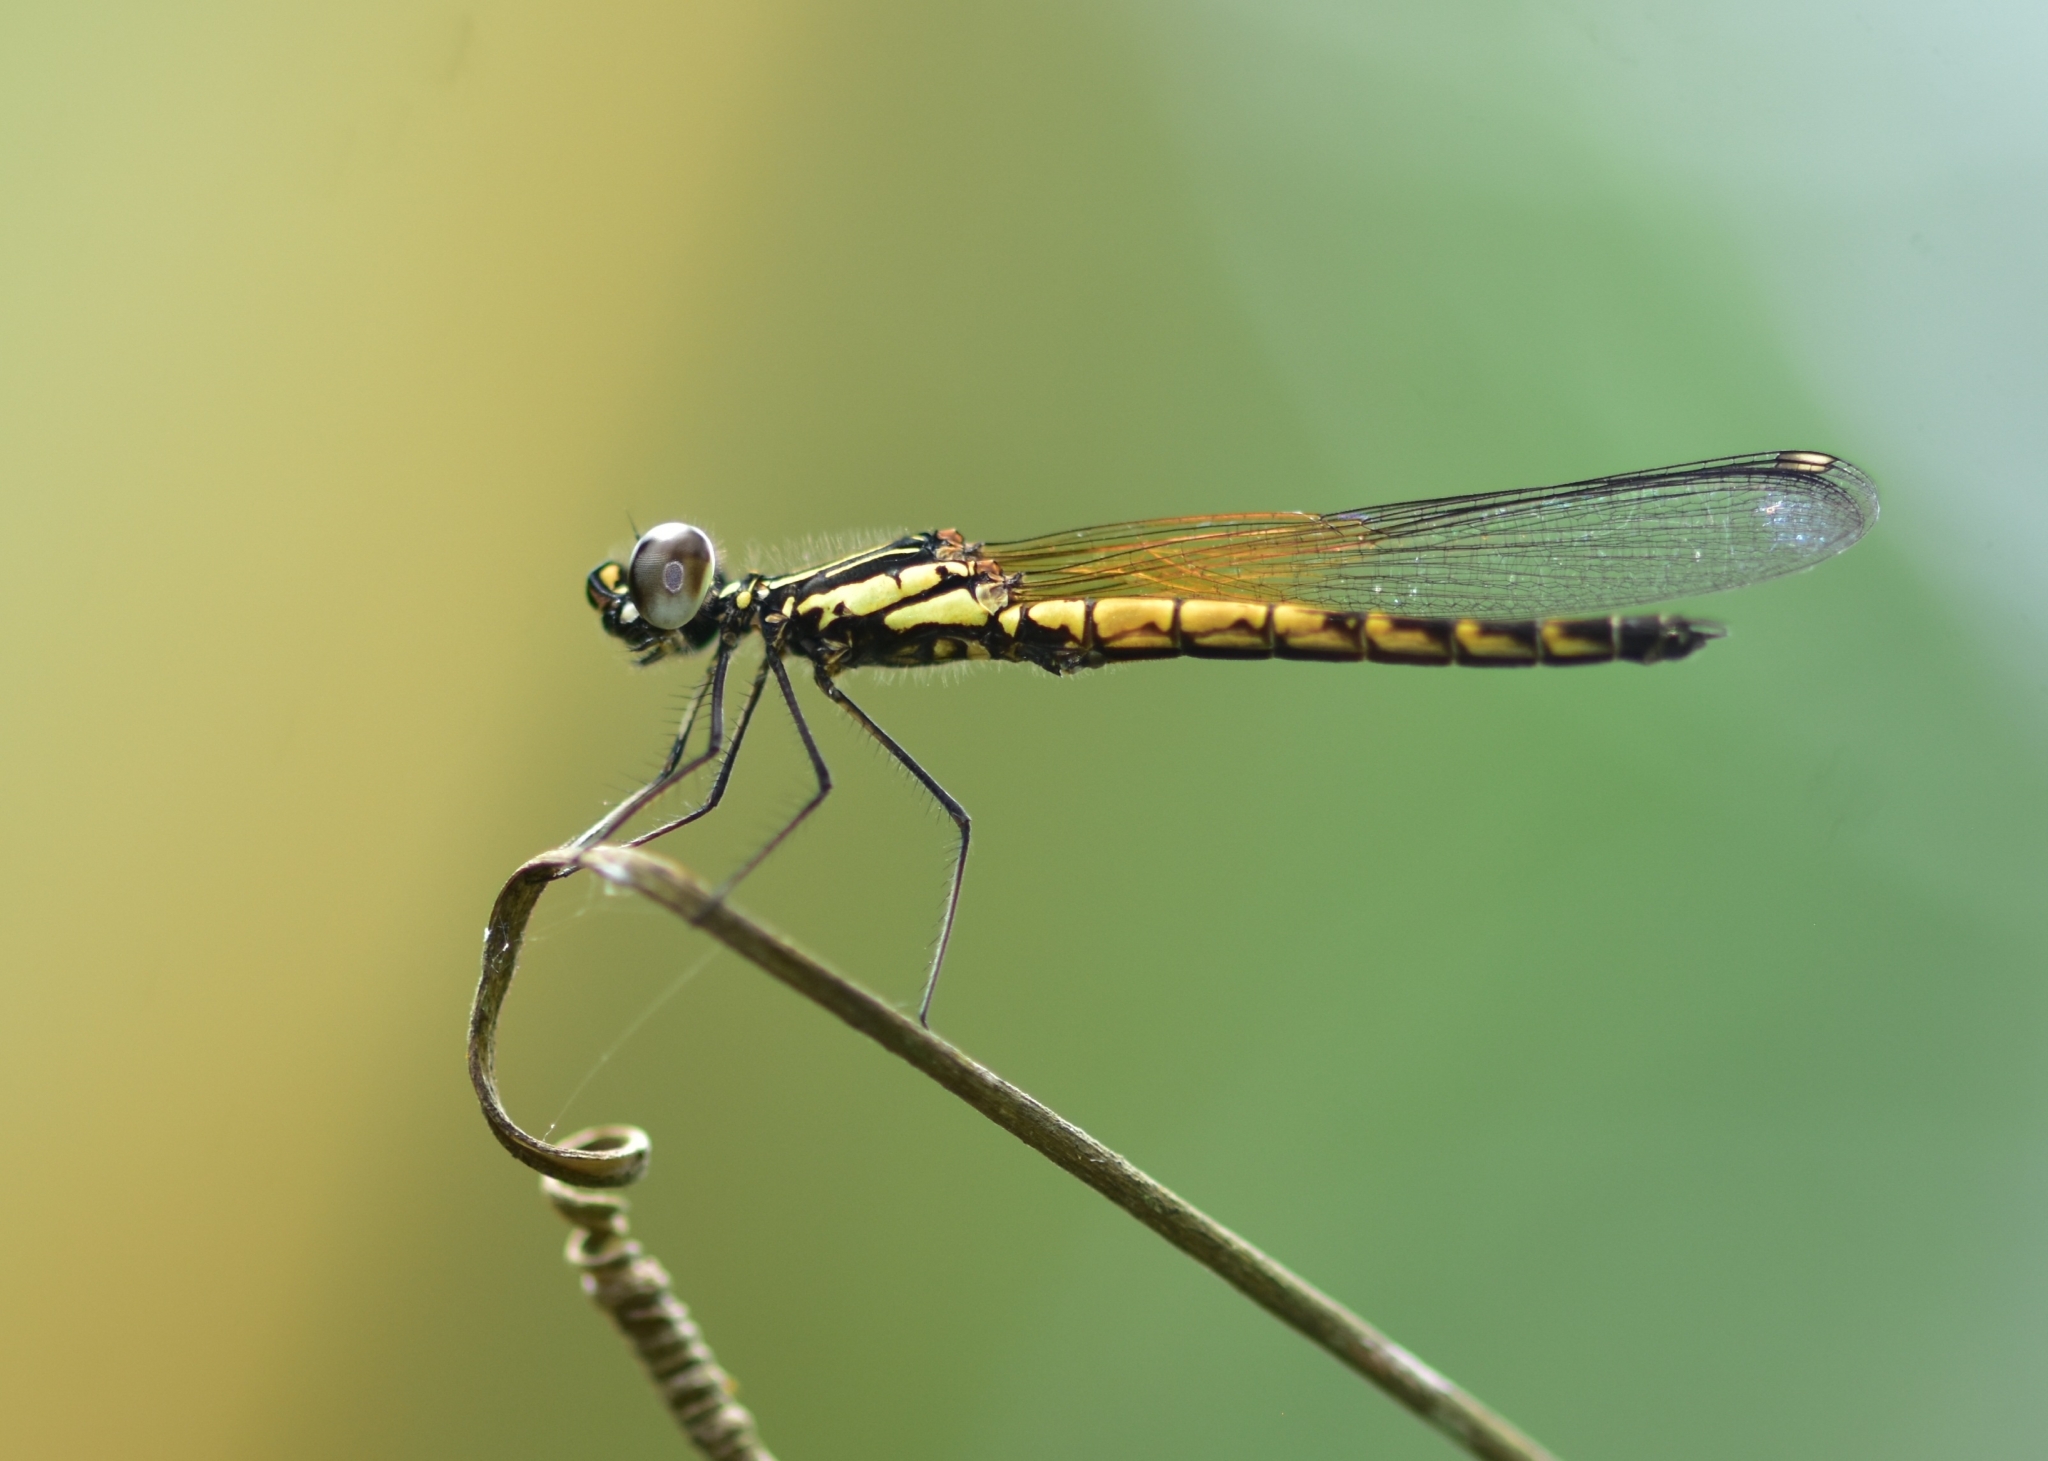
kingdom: Animalia
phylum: Arthropoda
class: Insecta
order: Odonata
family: Chlorocyphidae
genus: Libellago
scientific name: Libellago indica
